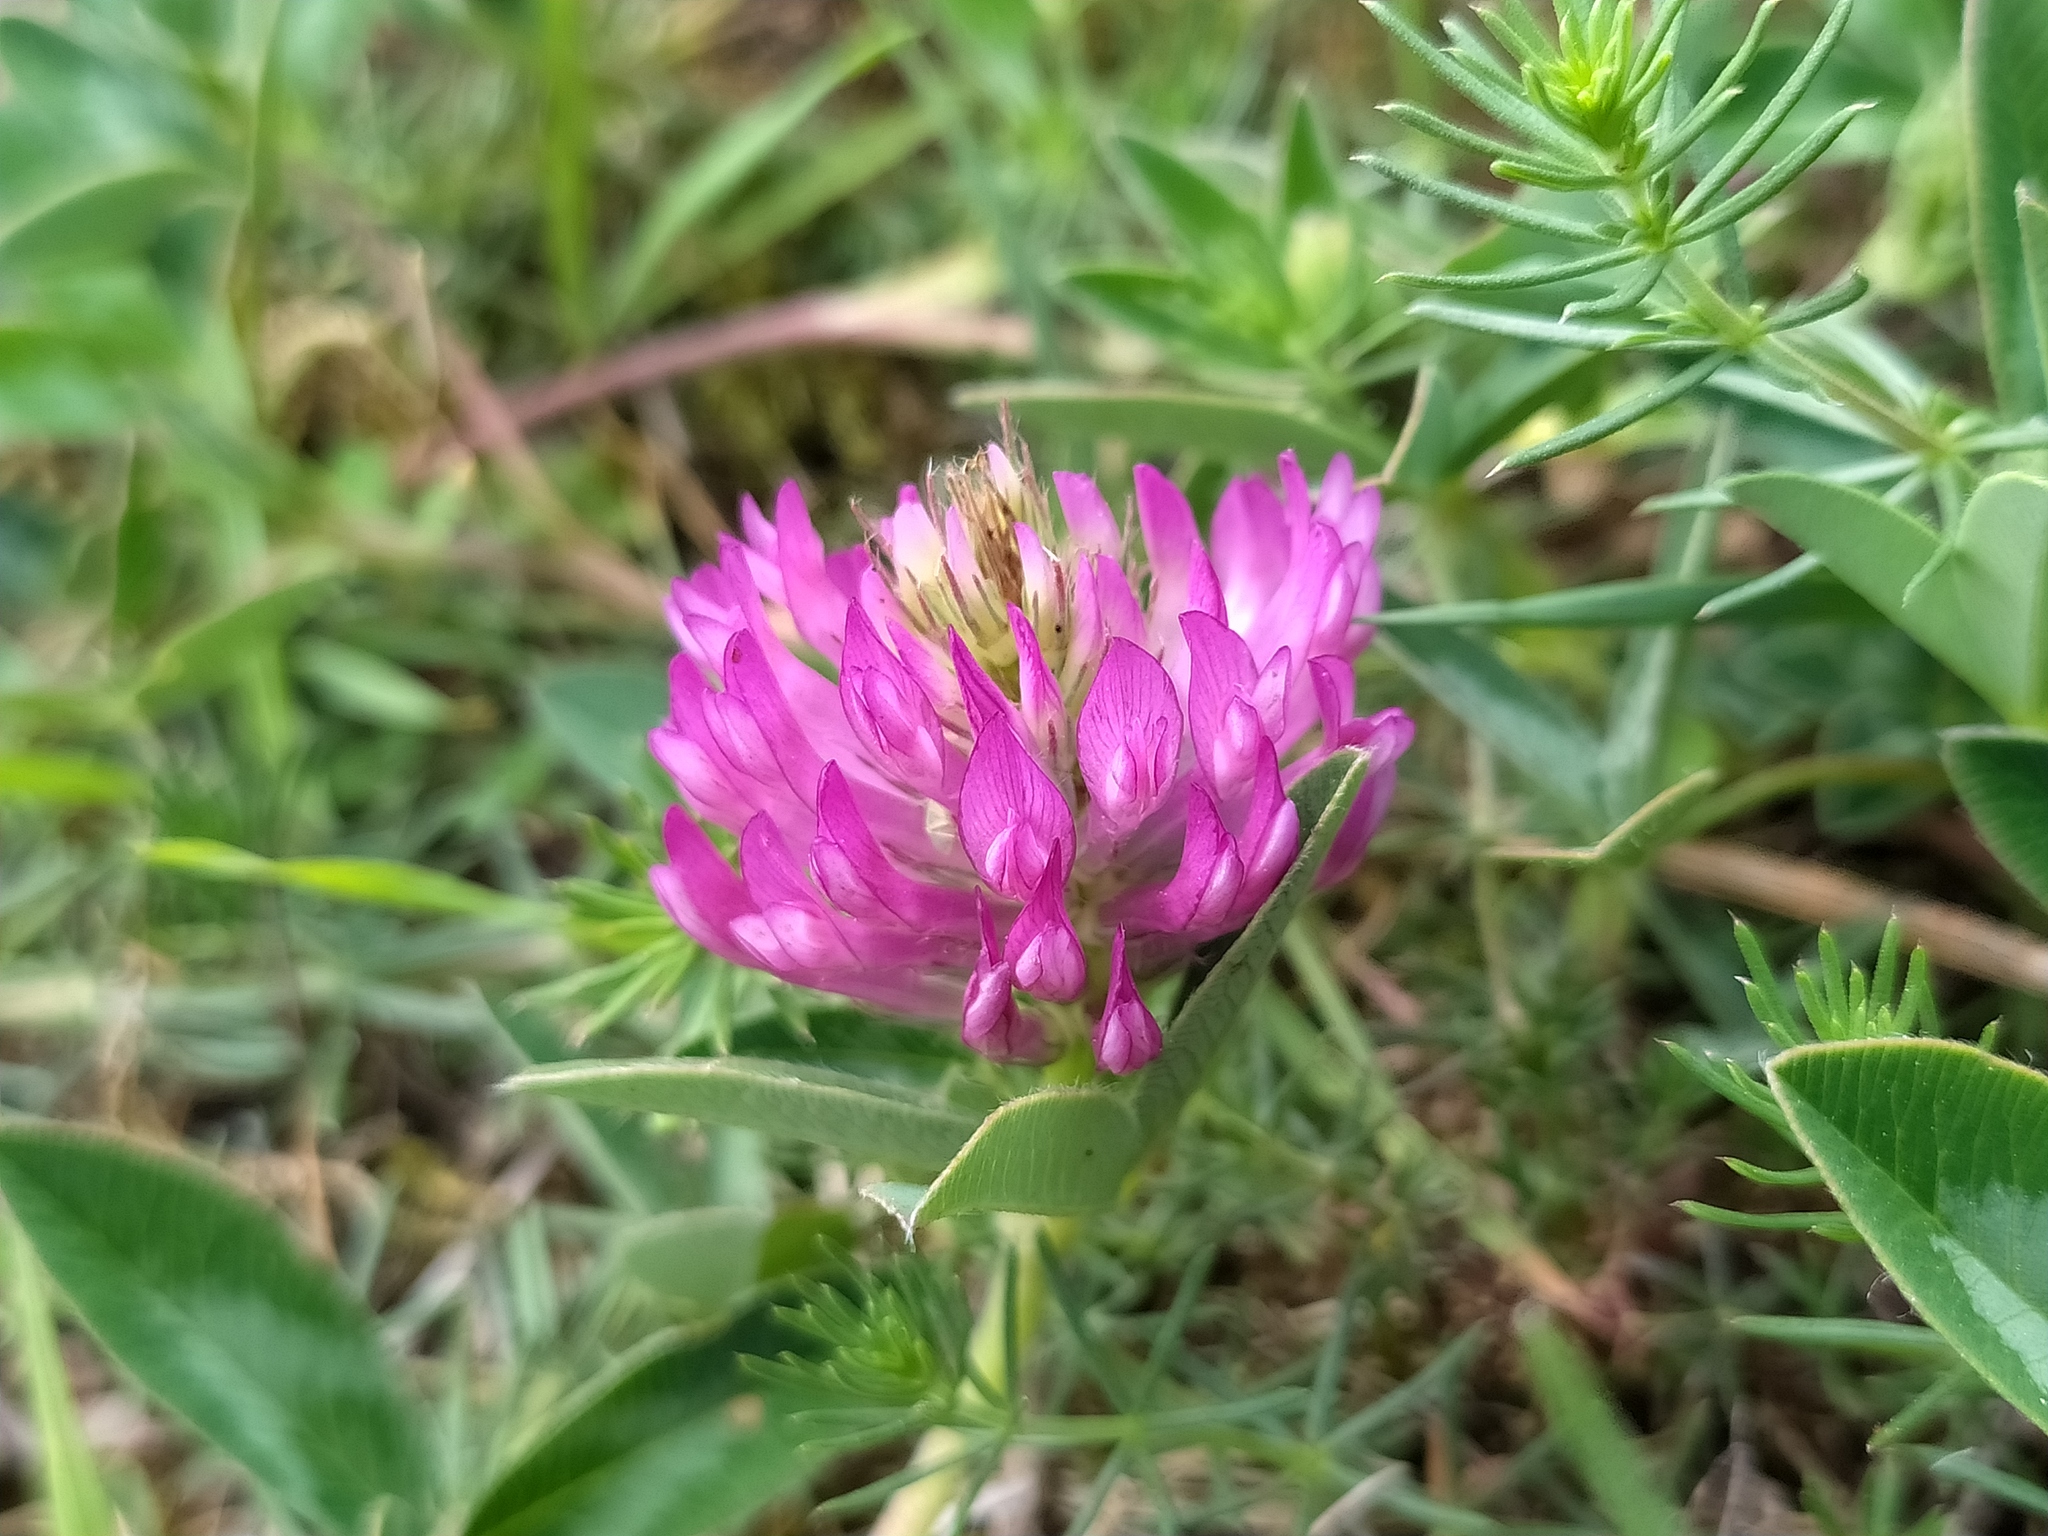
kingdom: Plantae
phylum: Tracheophyta
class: Magnoliopsida
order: Fabales
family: Fabaceae
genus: Trifolium
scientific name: Trifolium medium
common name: Zigzag clover
